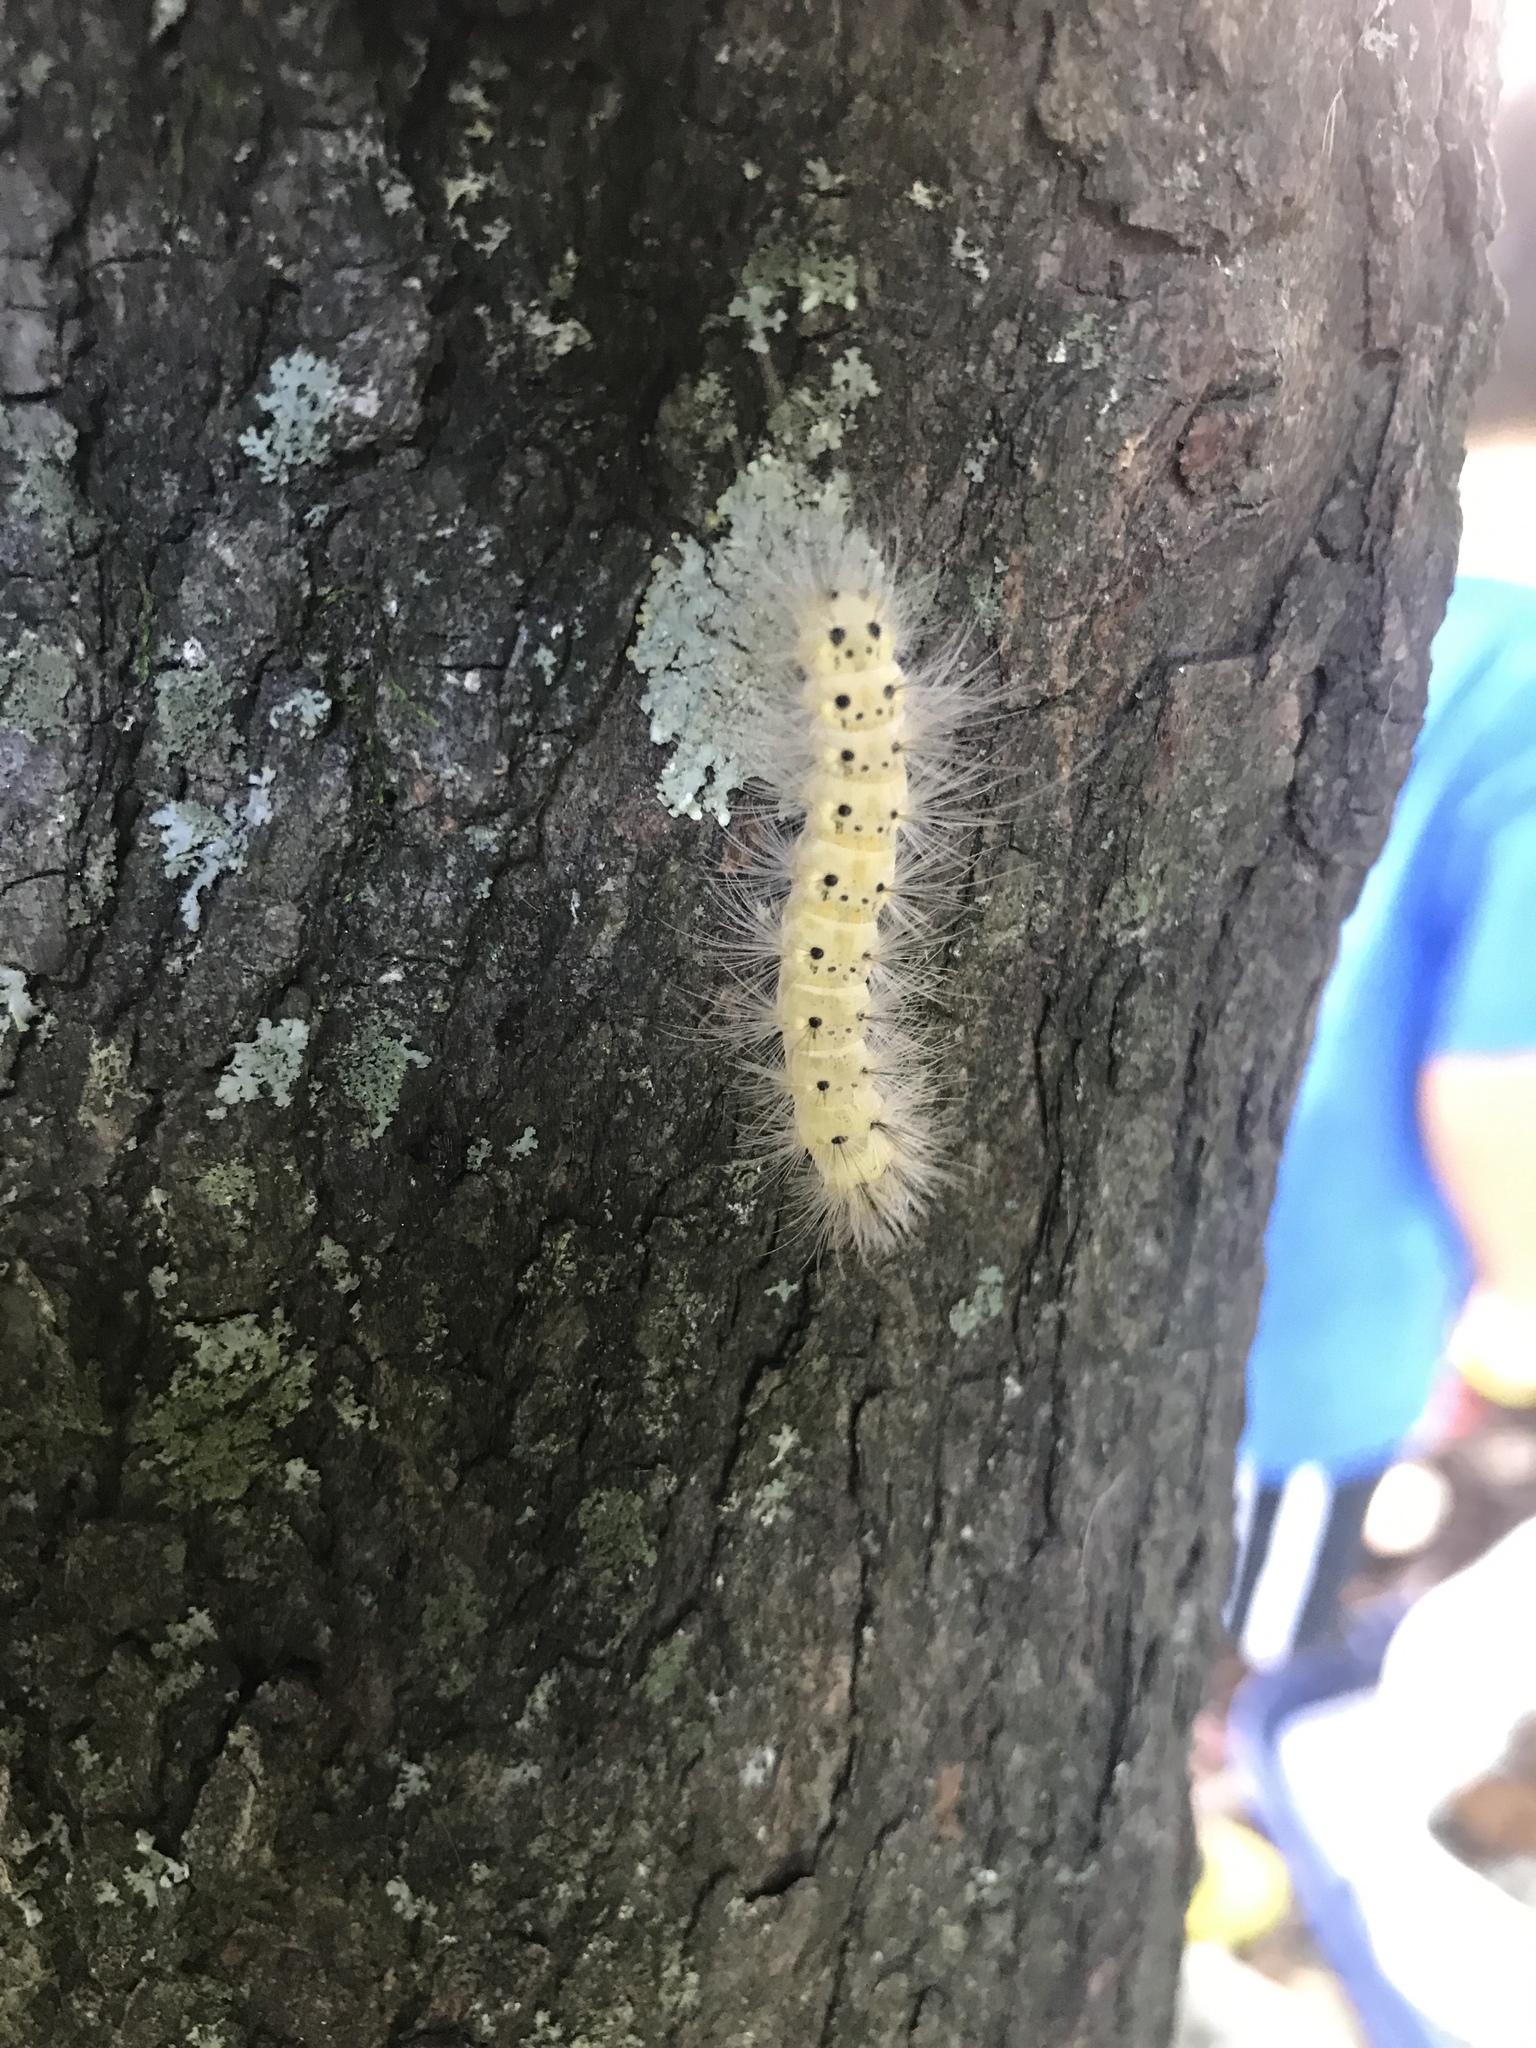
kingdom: Animalia
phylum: Arthropoda
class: Insecta
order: Lepidoptera
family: Erebidae
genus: Hyphantria
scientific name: Hyphantria cunea
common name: American white moth
